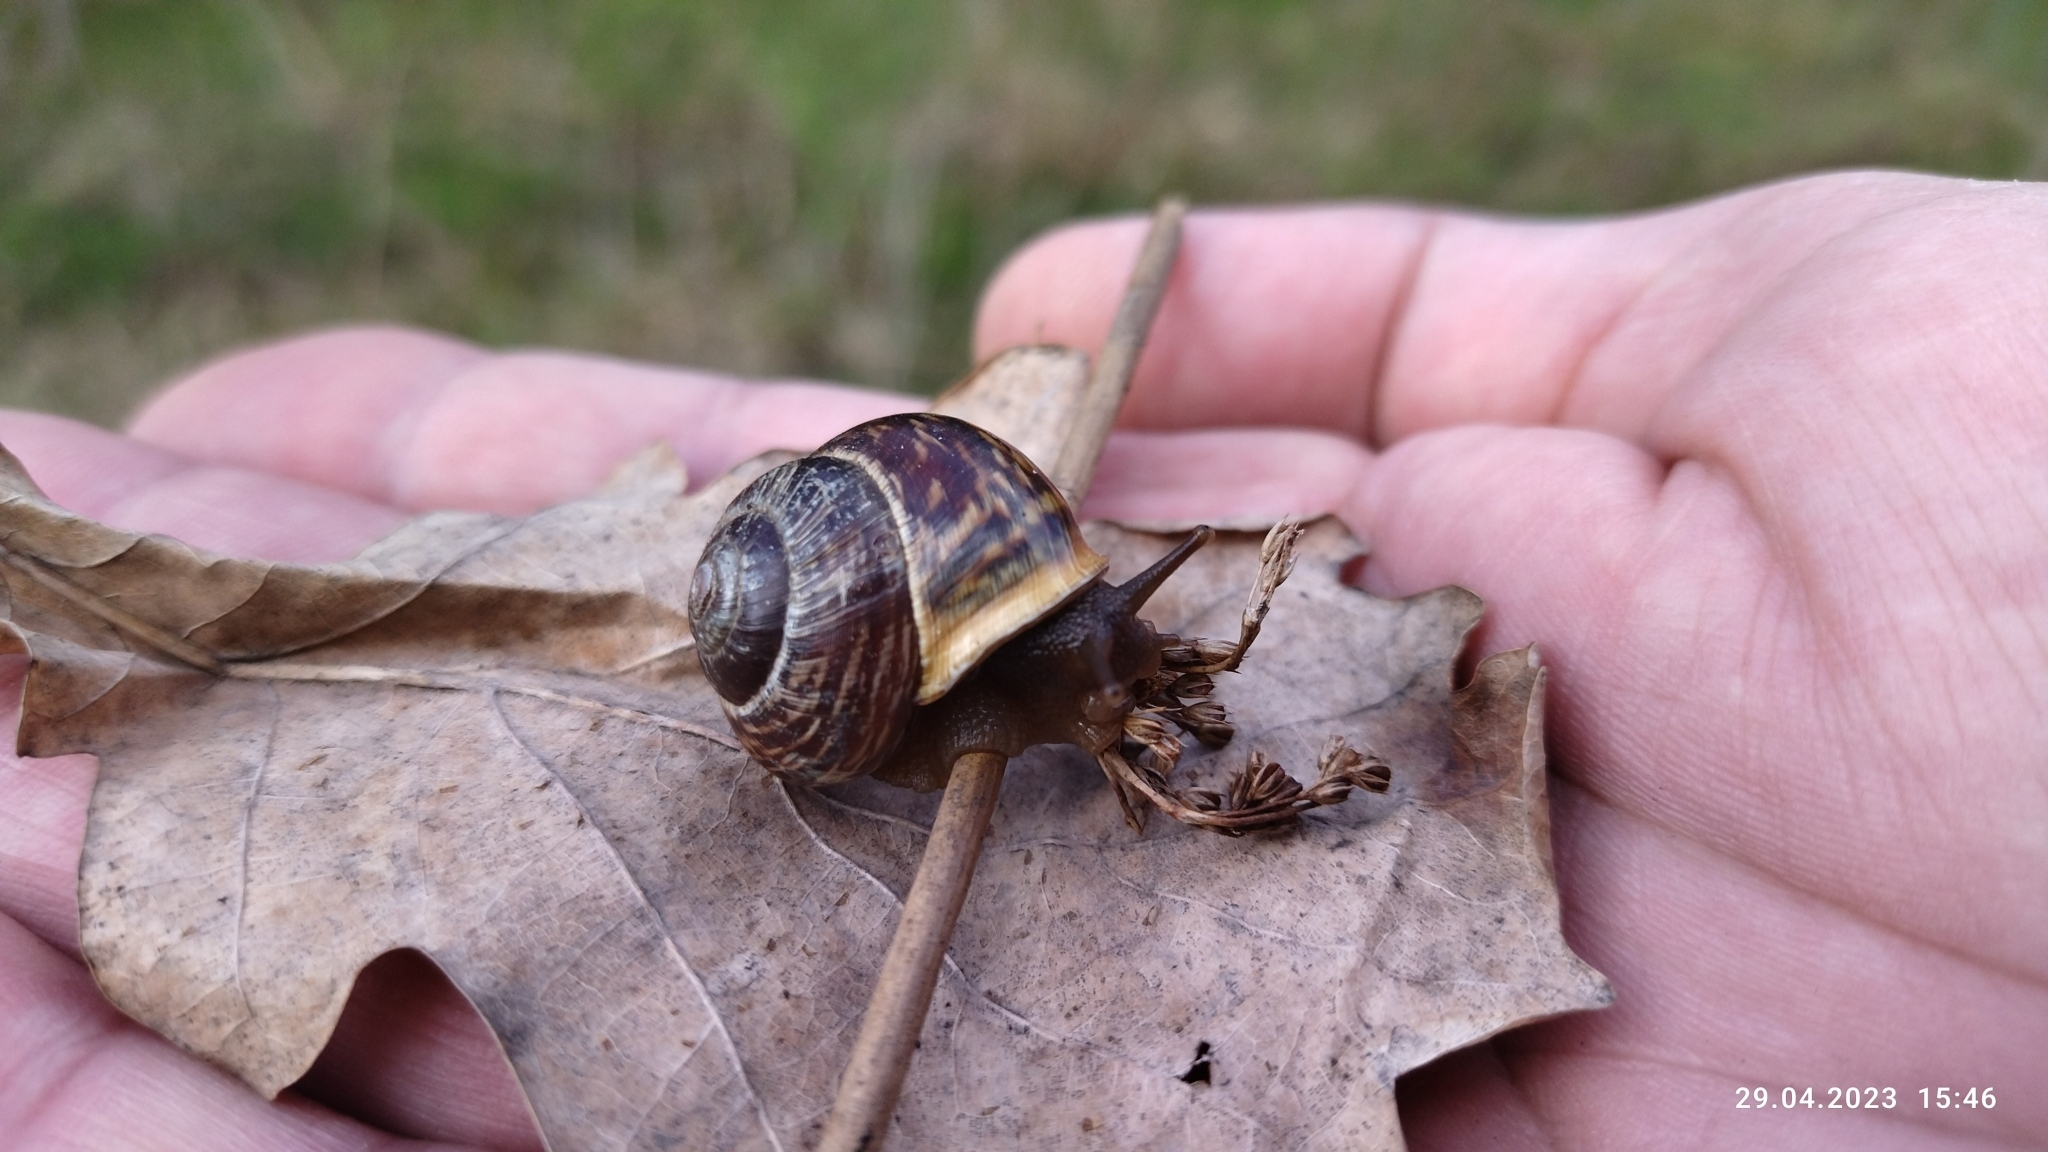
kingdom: Animalia
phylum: Mollusca
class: Gastropoda
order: Stylommatophora
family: Helicidae
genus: Arianta
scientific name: Arianta arbustorum
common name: Copse snail
